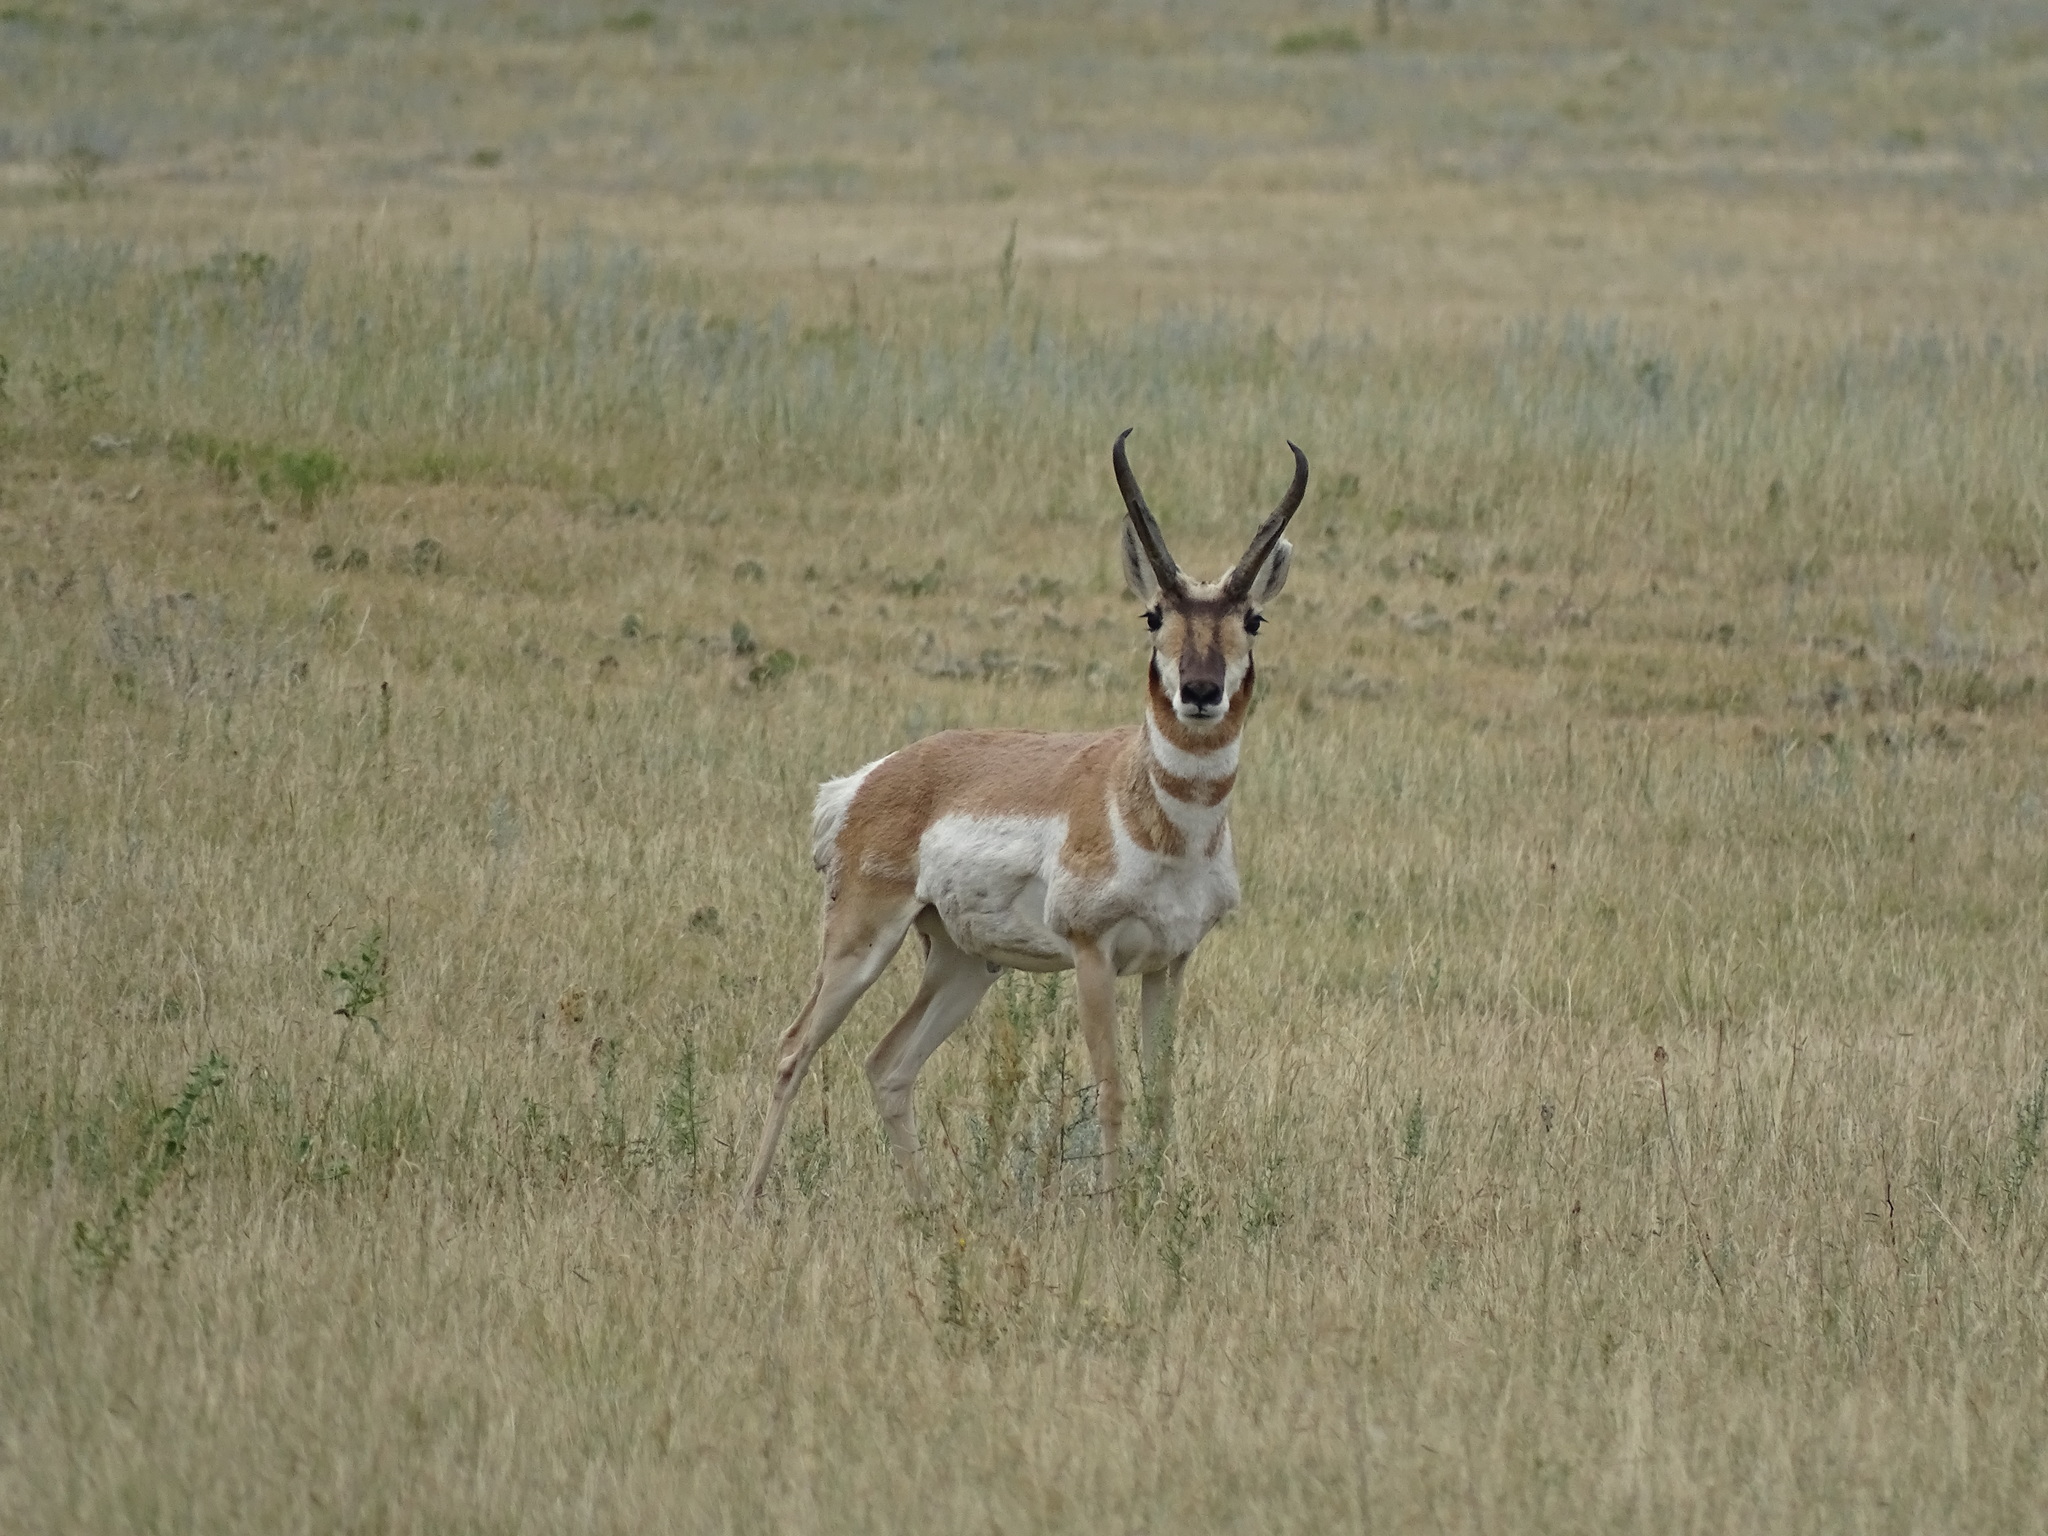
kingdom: Animalia
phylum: Chordata
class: Mammalia
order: Artiodactyla
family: Antilocapridae
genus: Antilocapra
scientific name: Antilocapra americana
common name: Pronghorn
